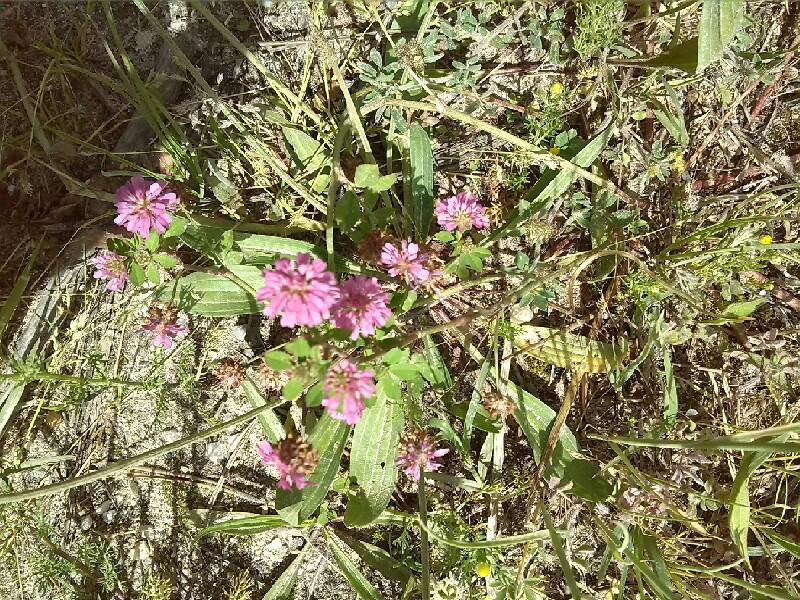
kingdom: Plantae
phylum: Tracheophyta
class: Magnoliopsida
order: Fabales
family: Fabaceae
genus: Trifolium
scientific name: Trifolium resupinatum
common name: Reversed clover
